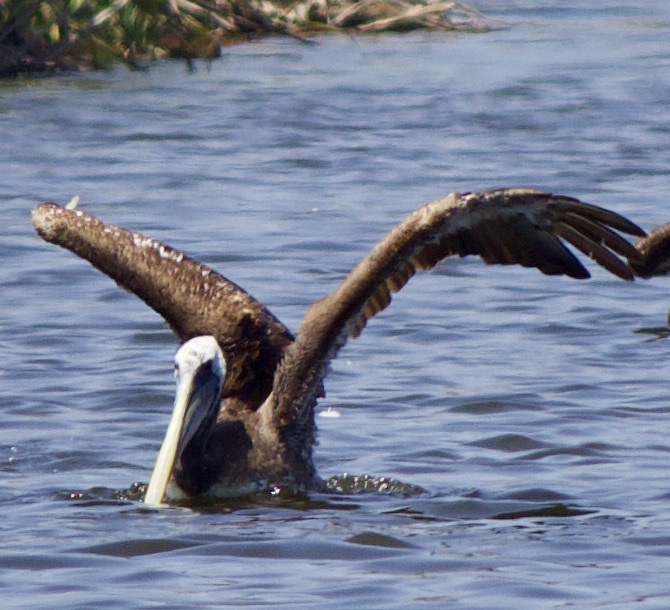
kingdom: Animalia
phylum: Chordata
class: Aves
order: Pelecaniformes
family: Pelecanidae
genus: Pelecanus
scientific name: Pelecanus thagus
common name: Peruvian pelican
